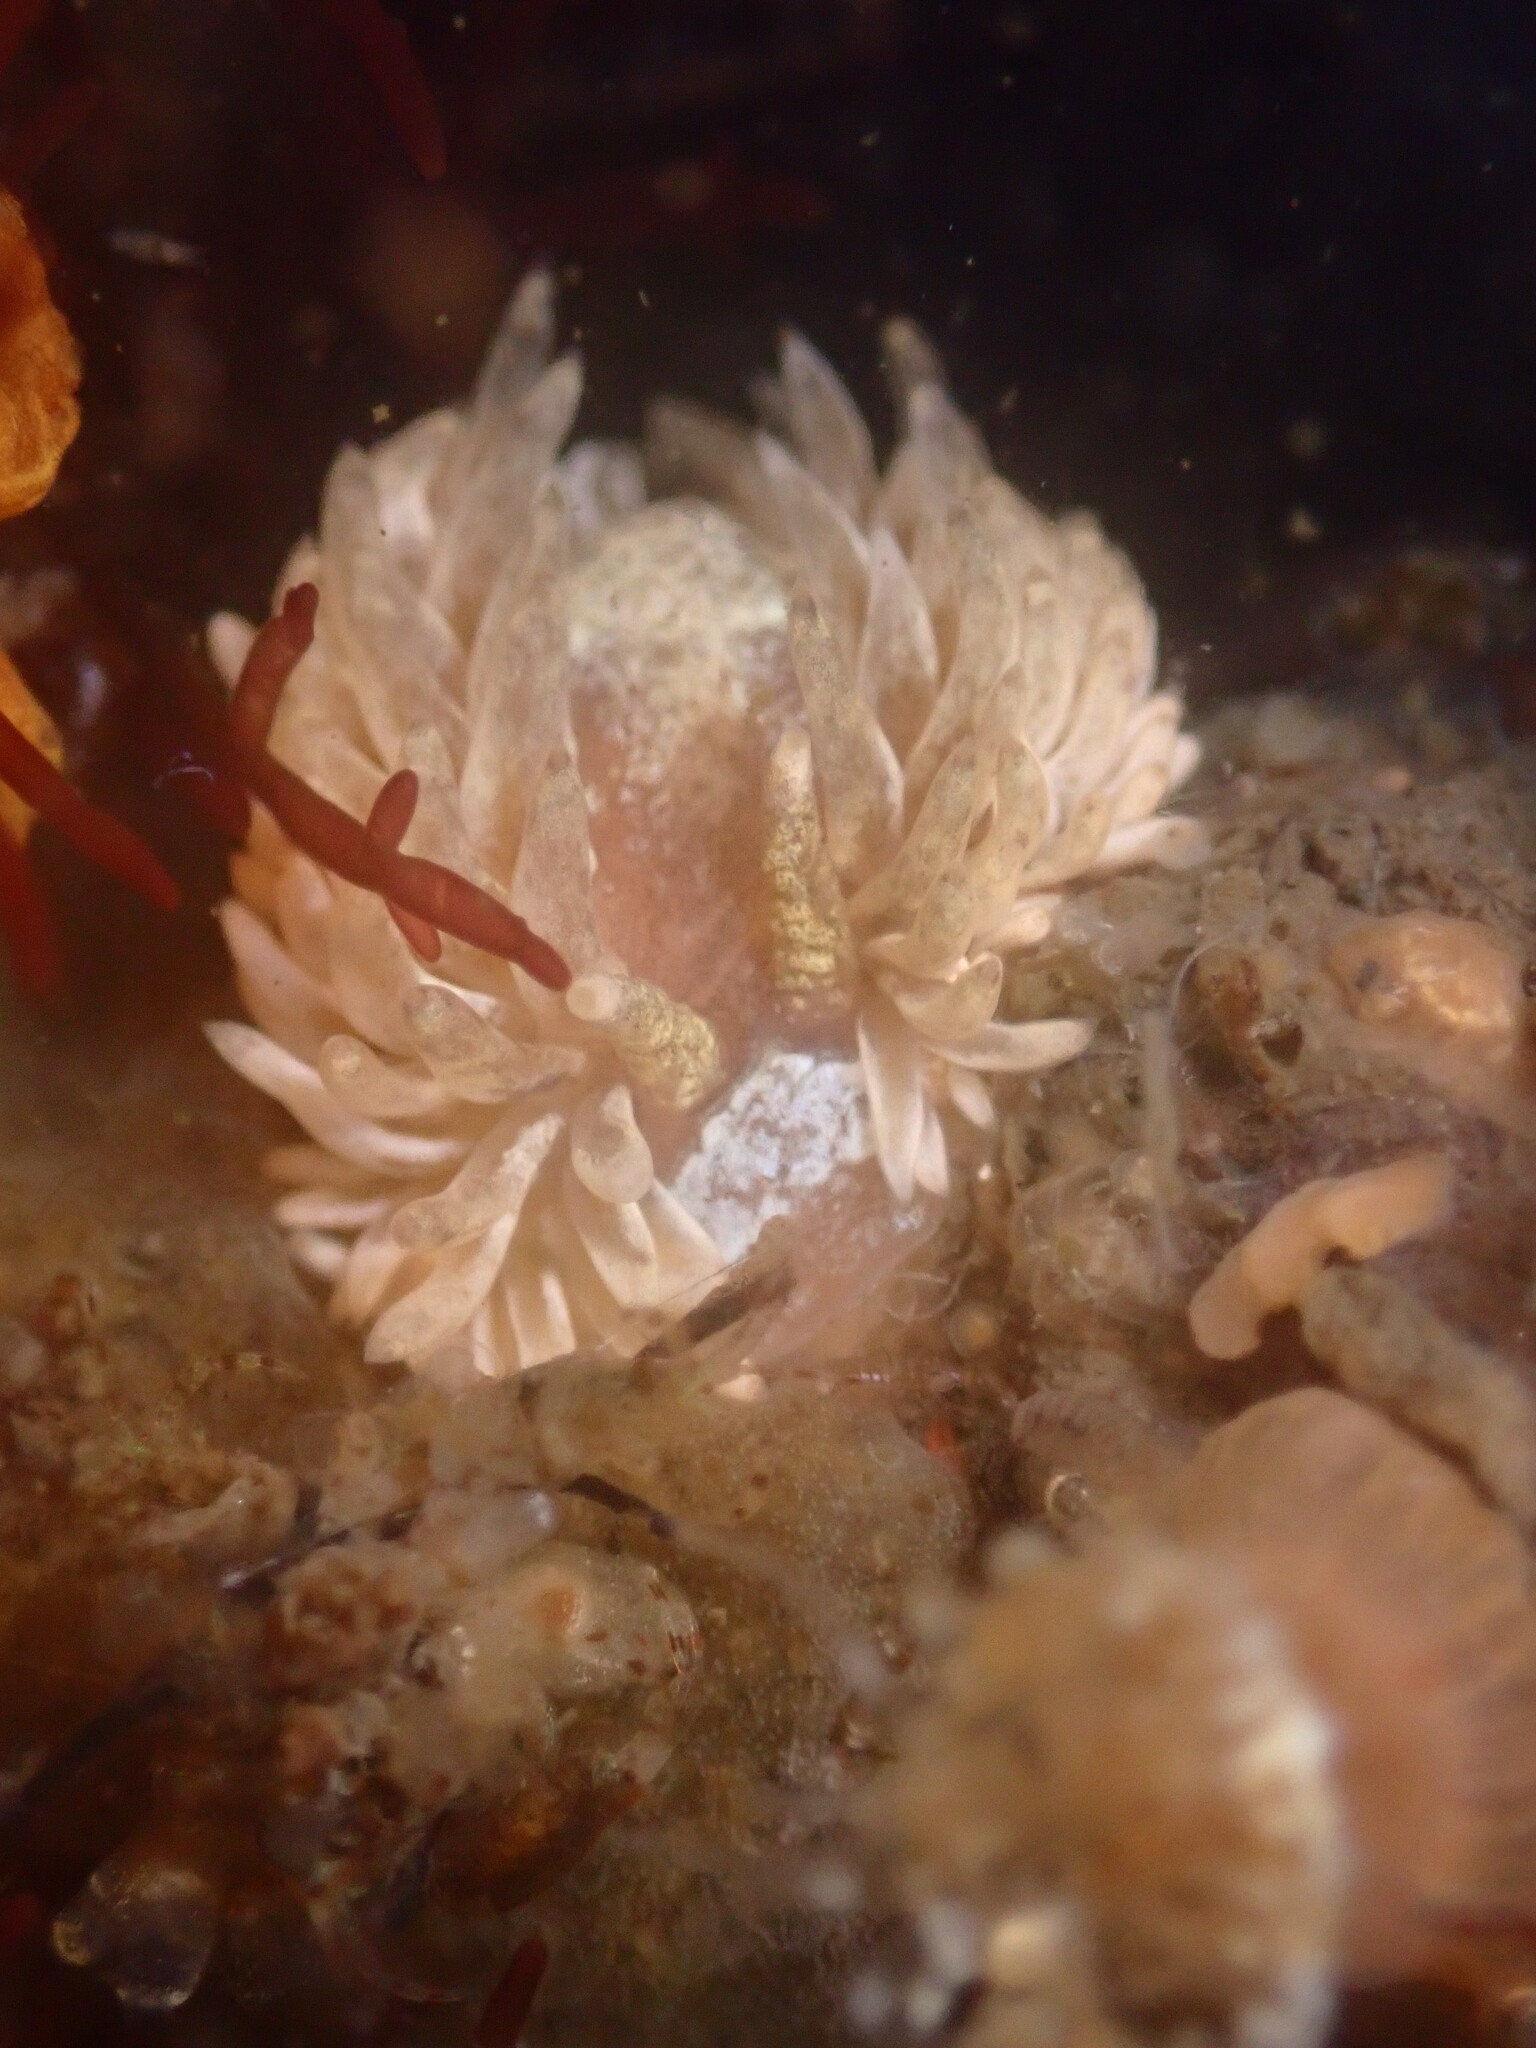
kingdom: Animalia
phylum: Mollusca
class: Gastropoda
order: Nudibranchia
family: Aeolidiidae
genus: Aeolidia
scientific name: Aeolidia loui
